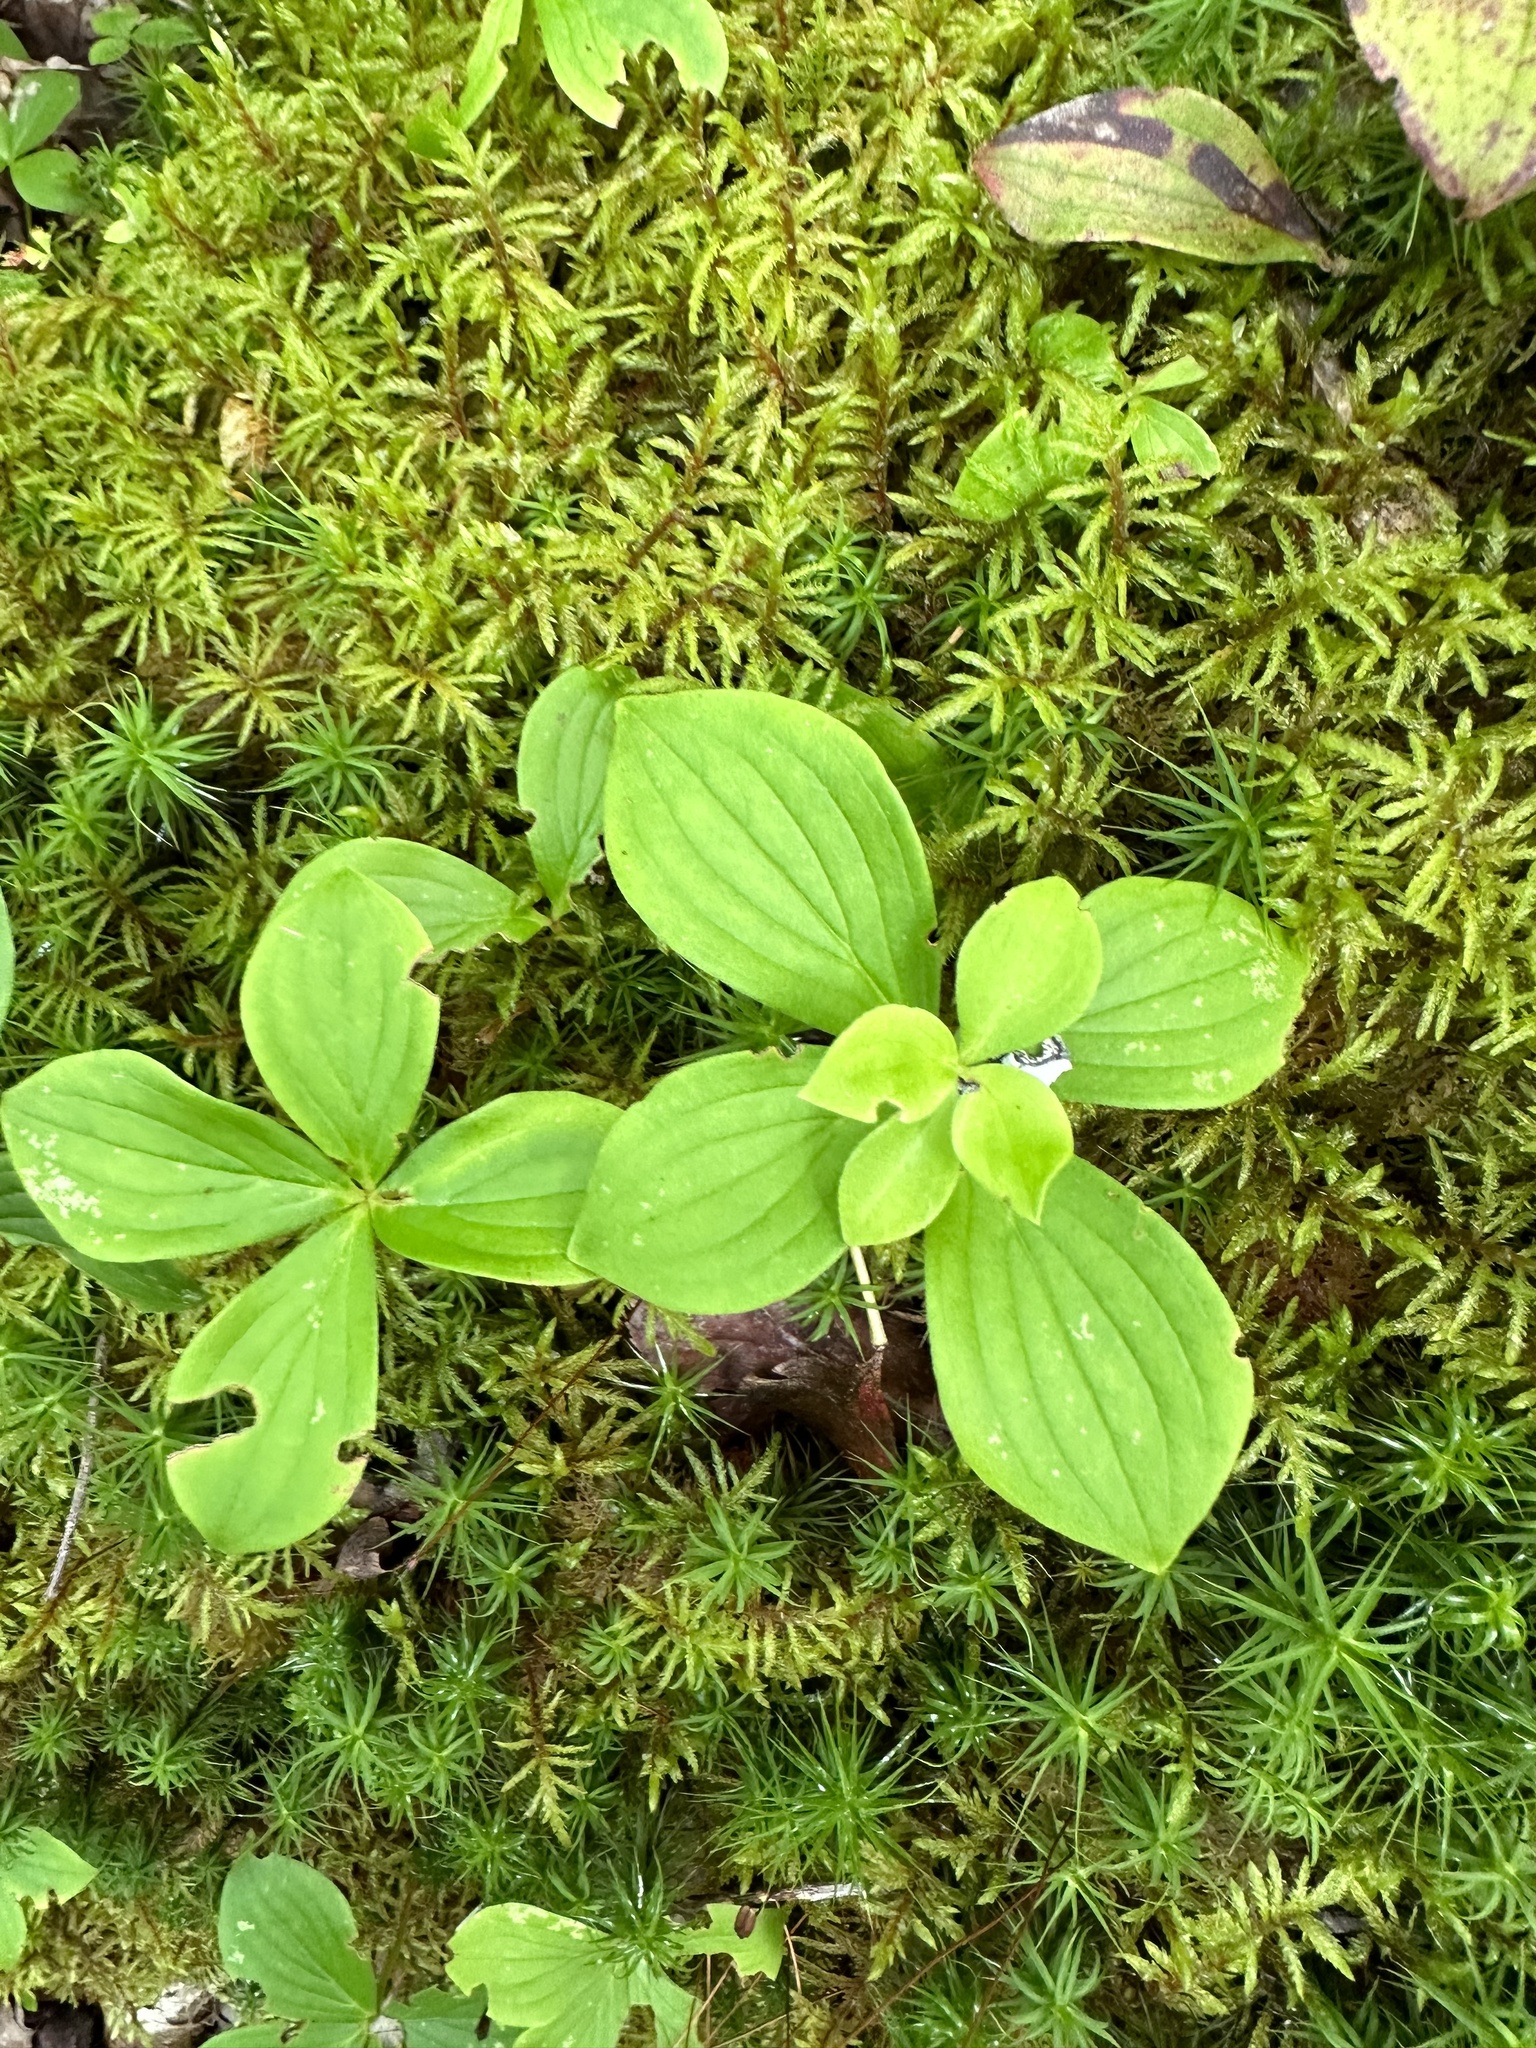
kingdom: Plantae
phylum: Tracheophyta
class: Magnoliopsida
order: Cornales
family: Cornaceae
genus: Cornus
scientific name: Cornus canadensis
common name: Creeping dogwood
